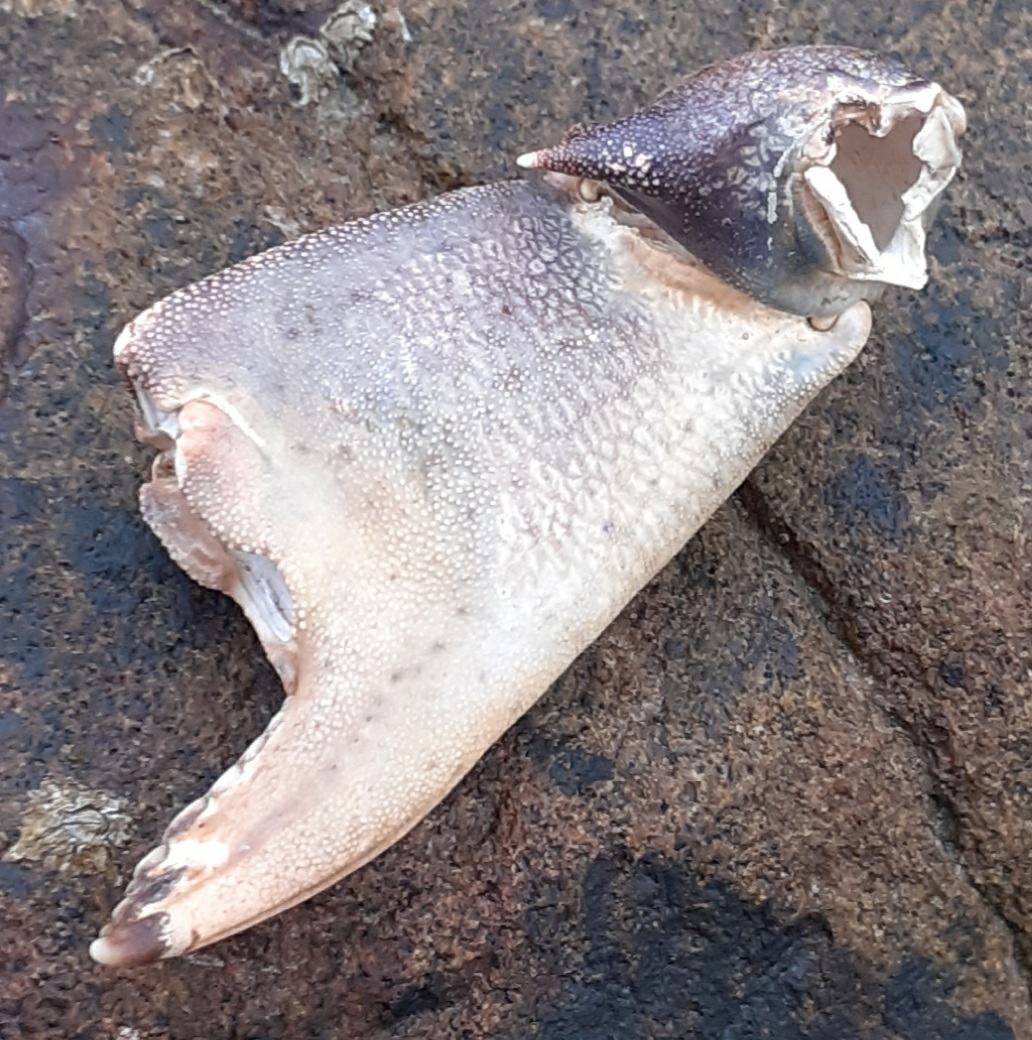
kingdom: Animalia
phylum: Arthropoda
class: Malacostraca
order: Decapoda
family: Carcinidae
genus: Carcinus
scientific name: Carcinus maenas
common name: European green crab
